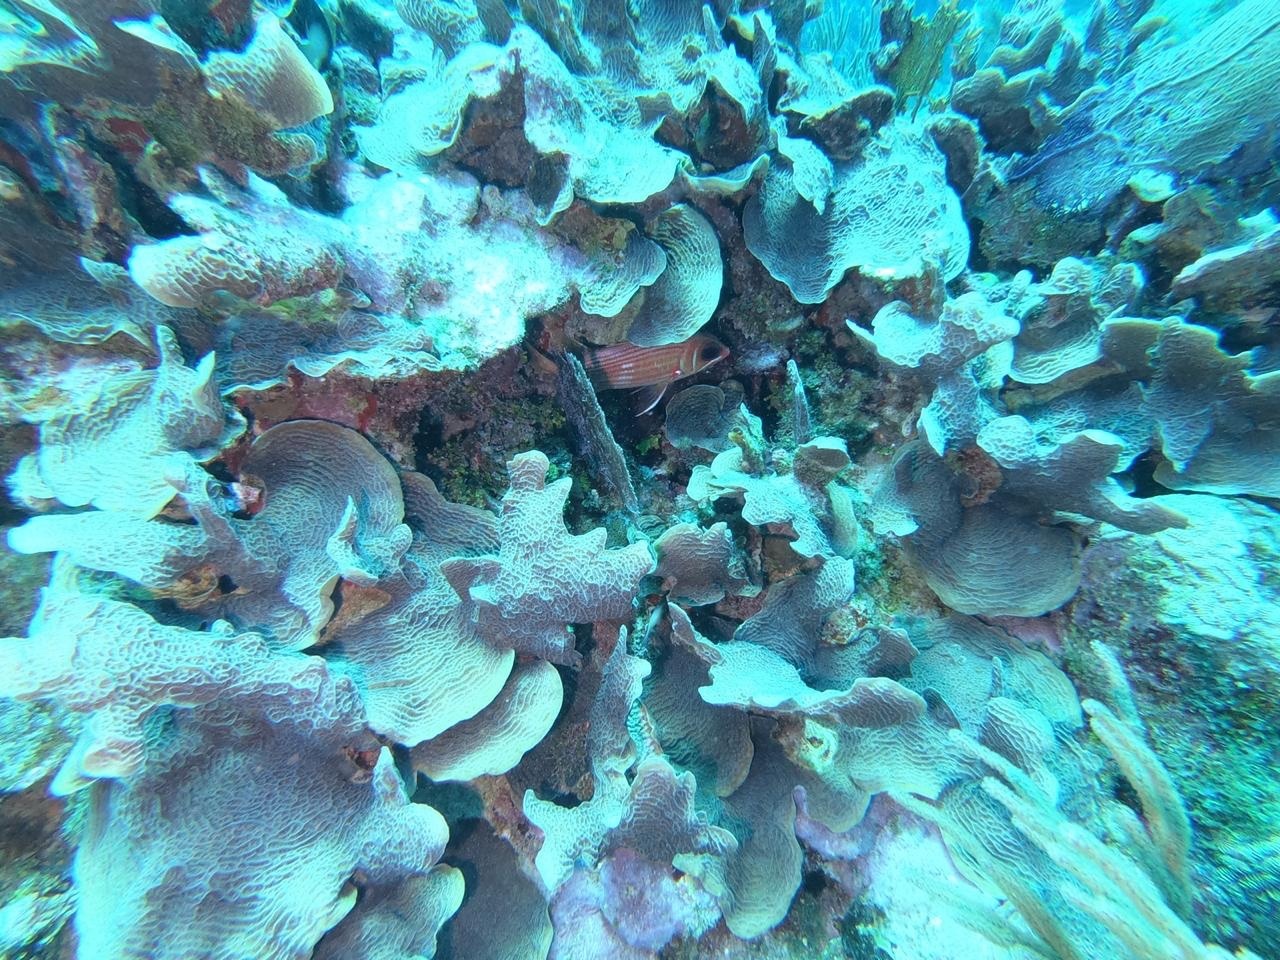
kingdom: Animalia
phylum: Cnidaria
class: Anthozoa
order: Scleractinia
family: Agariciidae
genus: Agaricia
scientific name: Agaricia tenuifolia
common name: Thin leaf lettuce coral
